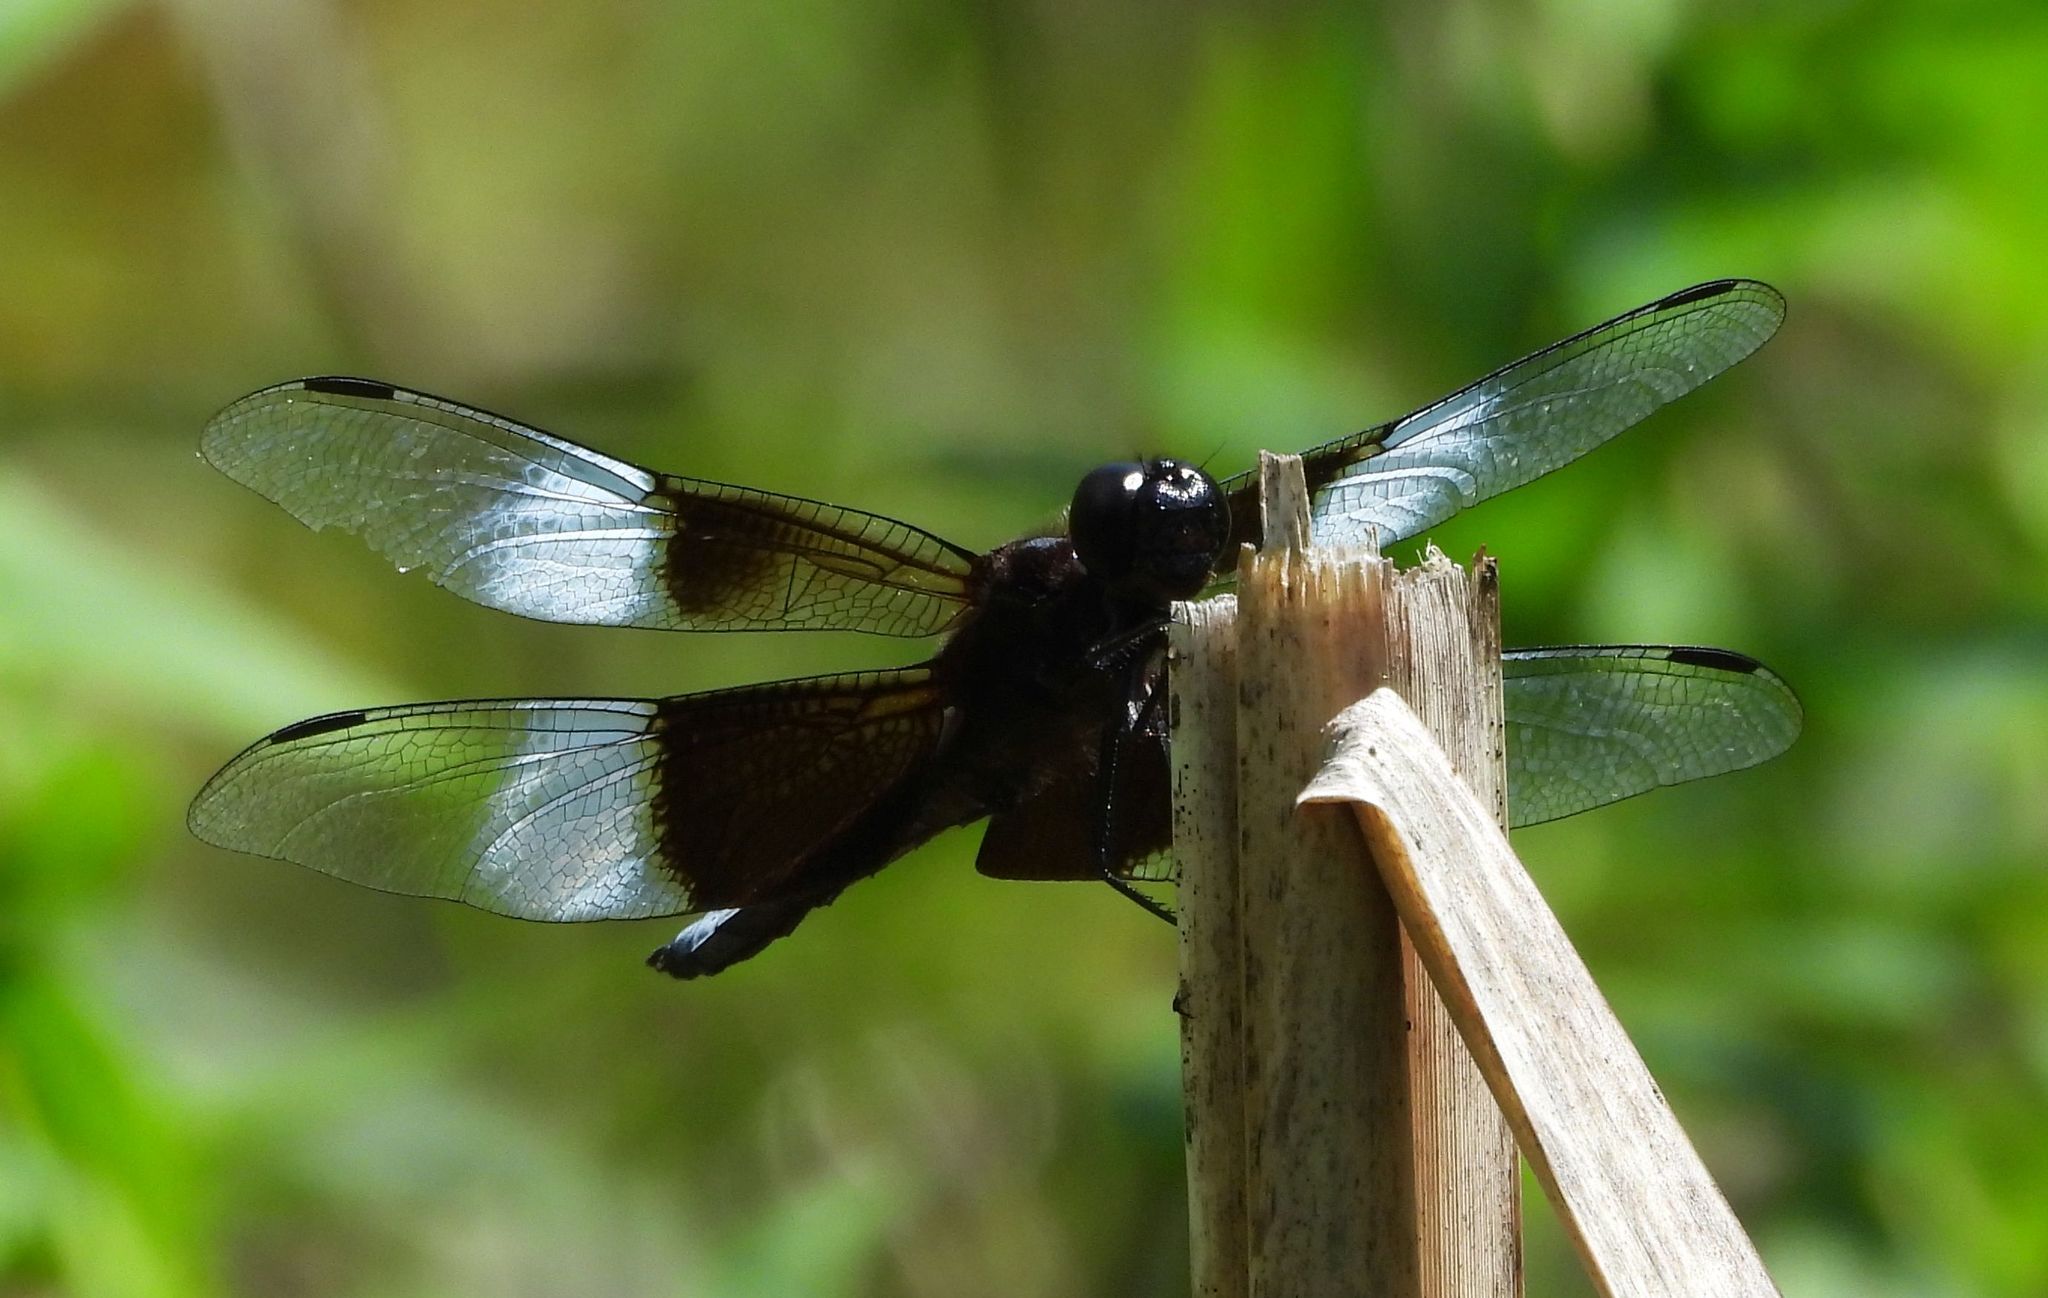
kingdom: Animalia
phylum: Arthropoda
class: Insecta
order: Odonata
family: Libellulidae
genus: Libellula
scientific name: Libellula luctuosa
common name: Widow skimmer
